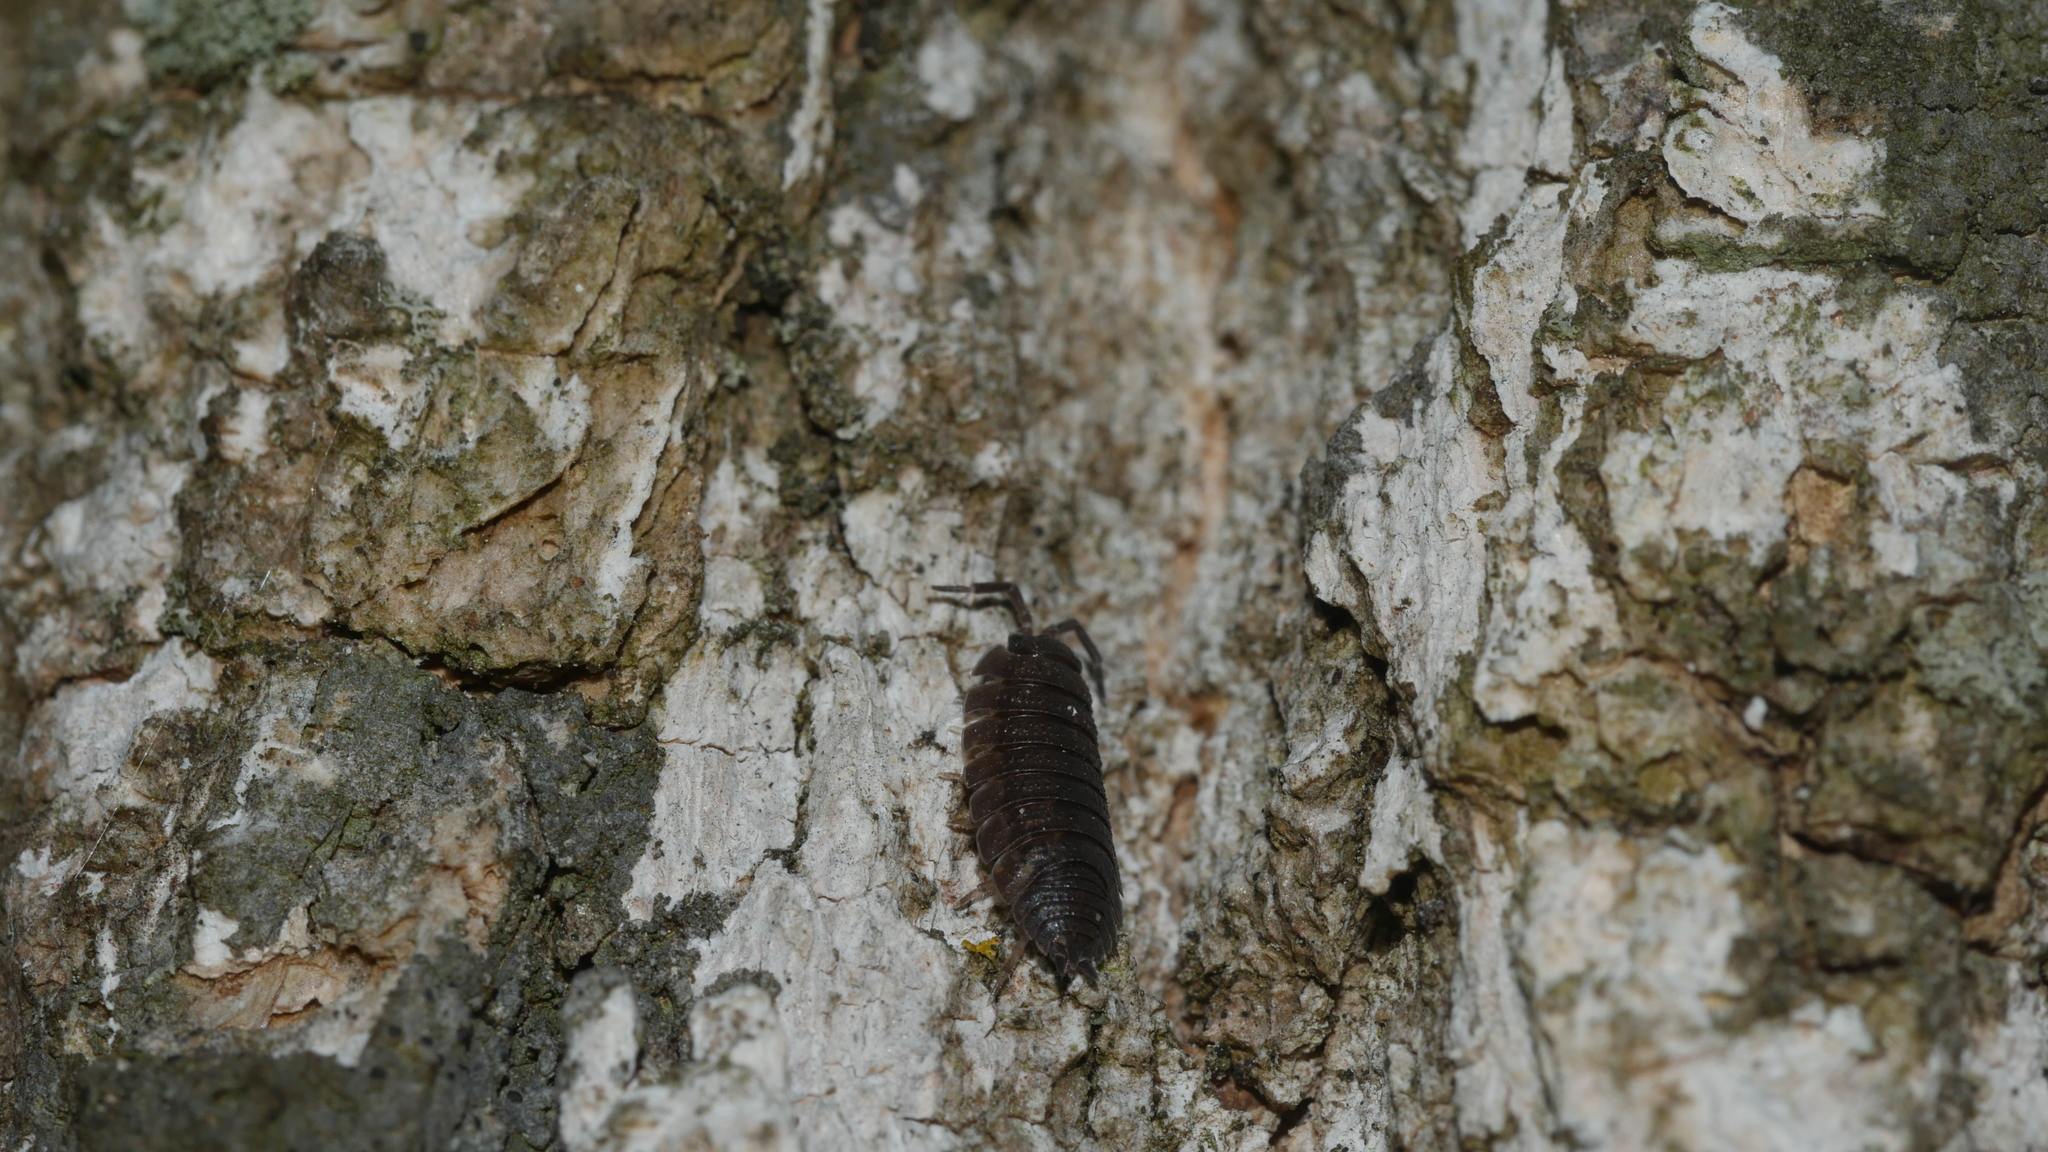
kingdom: Animalia
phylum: Arthropoda
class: Malacostraca
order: Isopoda
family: Porcellionidae
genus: Porcellio
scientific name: Porcellio scaber
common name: Common rough woodlouse
